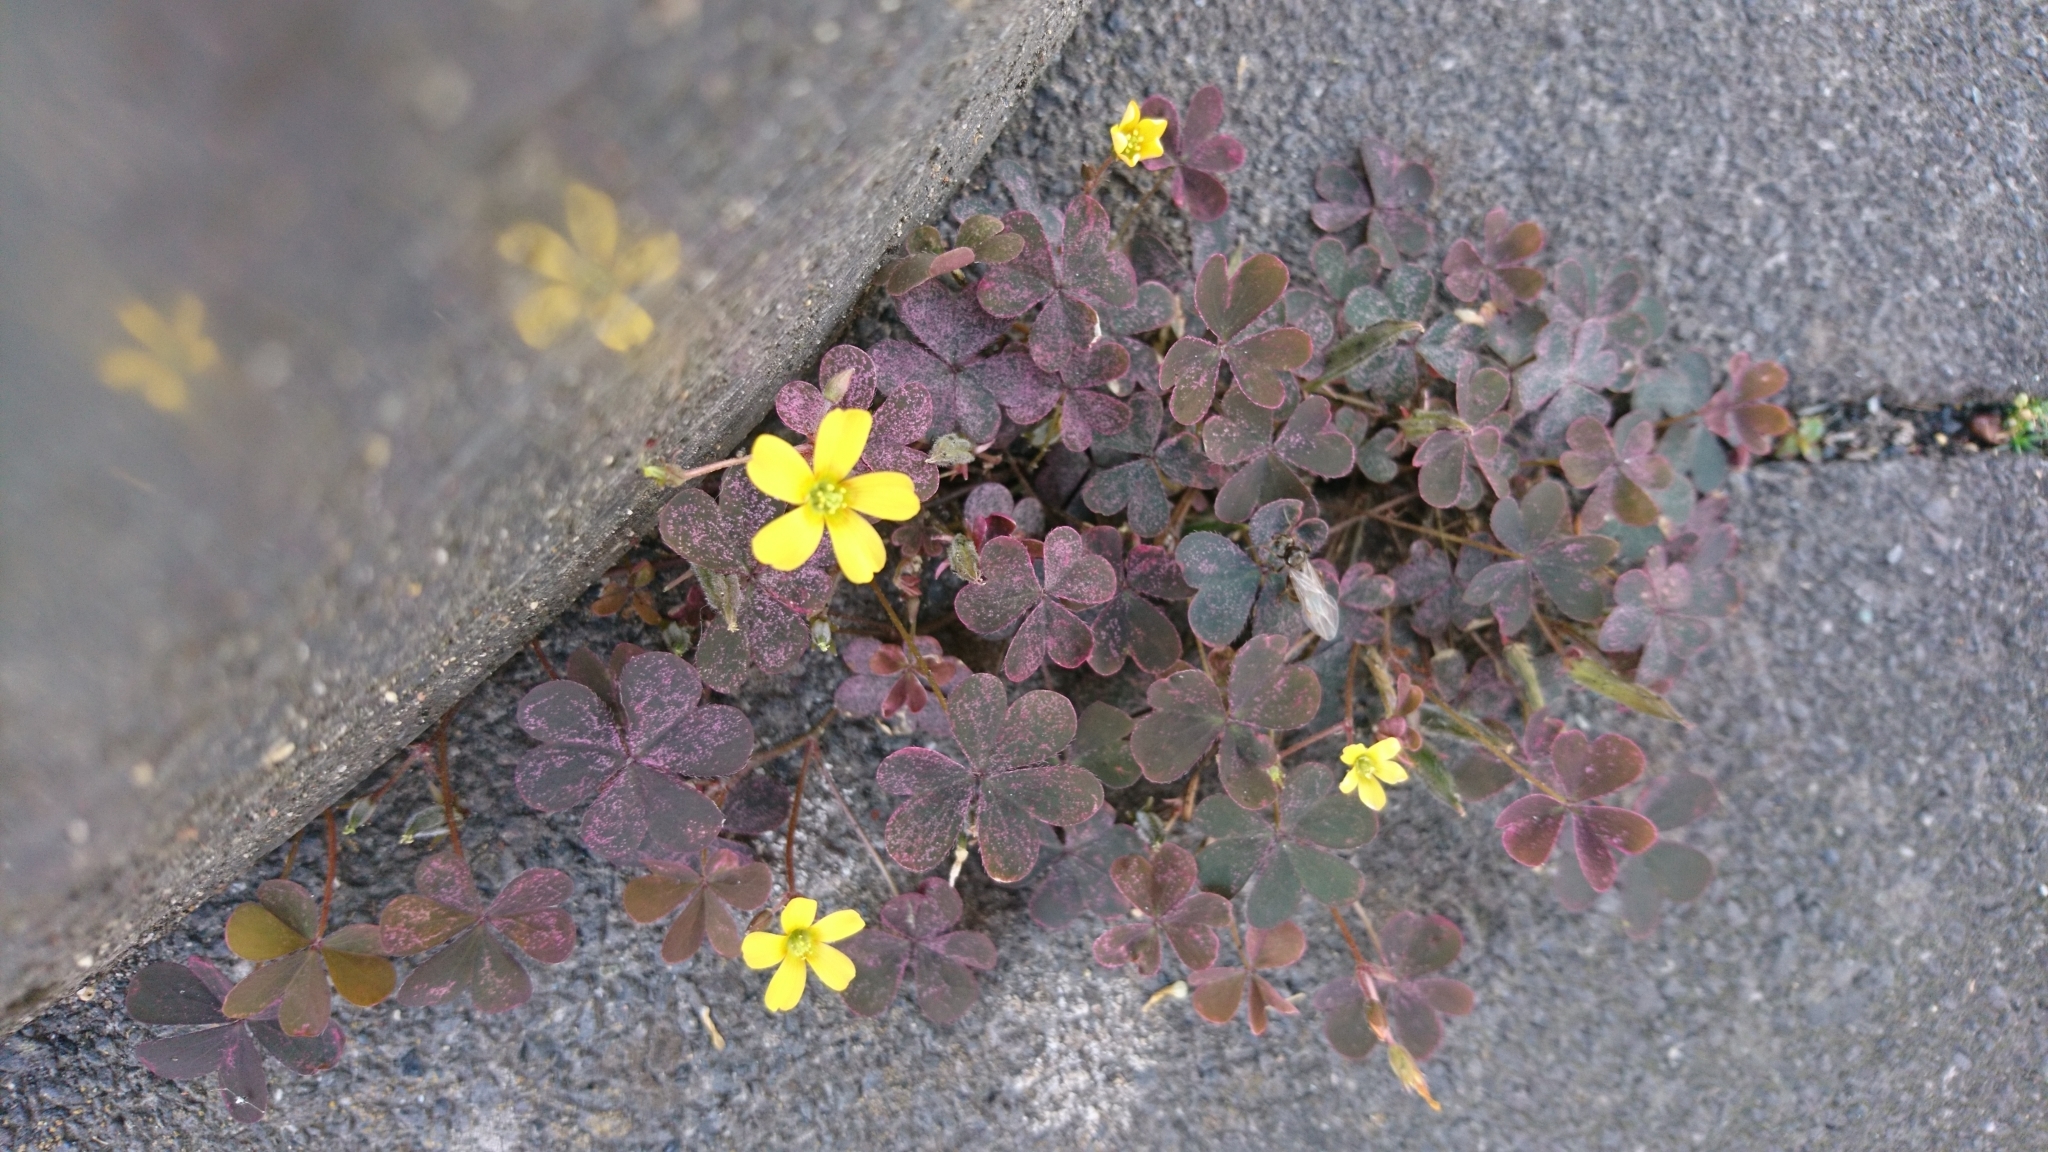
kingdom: Plantae
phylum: Tracheophyta
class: Magnoliopsida
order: Oxalidales
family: Oxalidaceae
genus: Oxalis
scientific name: Oxalis corniculata
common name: Procumbent yellow-sorrel
